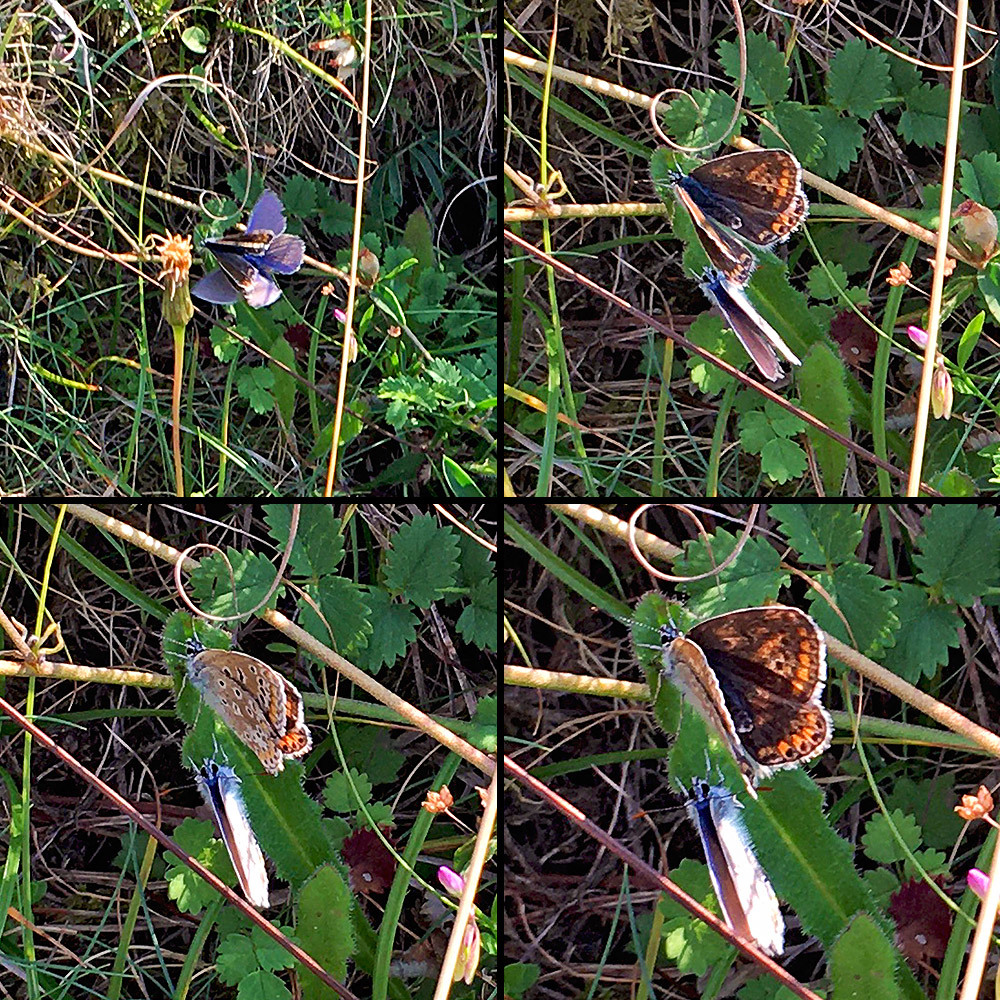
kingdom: Animalia
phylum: Arthropoda
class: Insecta
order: Lepidoptera
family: Lycaenidae
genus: Polyommatus
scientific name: Polyommatus icarus
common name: Common blue
